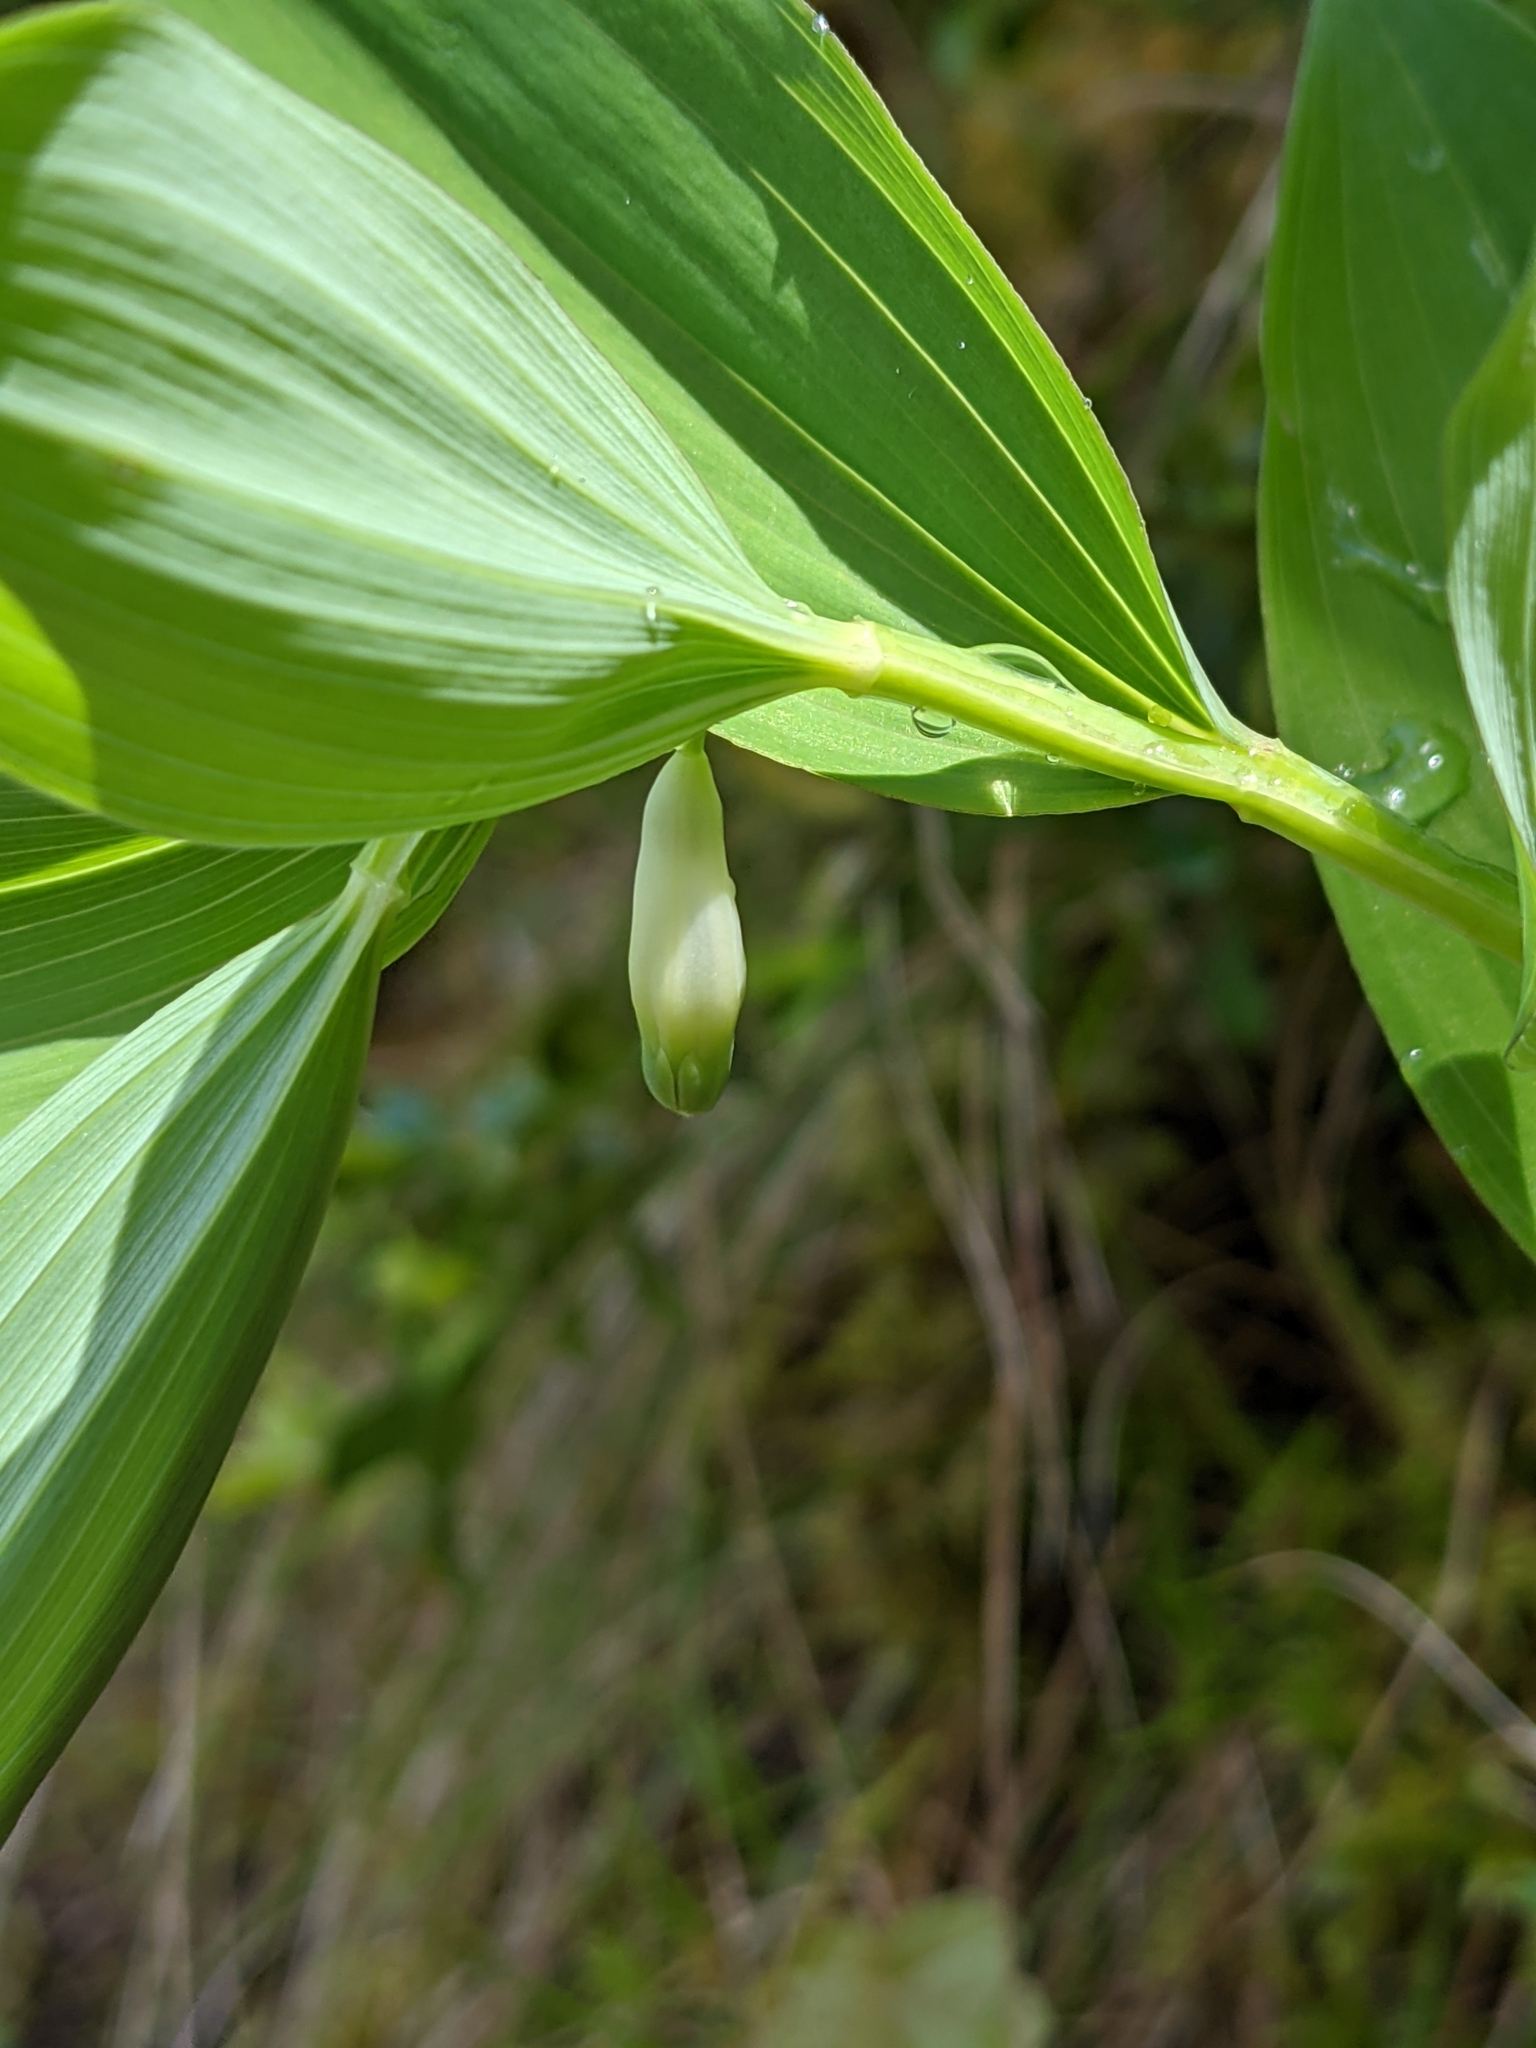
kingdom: Plantae
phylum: Tracheophyta
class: Liliopsida
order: Asparagales
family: Asparagaceae
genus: Polygonatum
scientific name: Polygonatum odoratum
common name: Angular solomon's-seal
